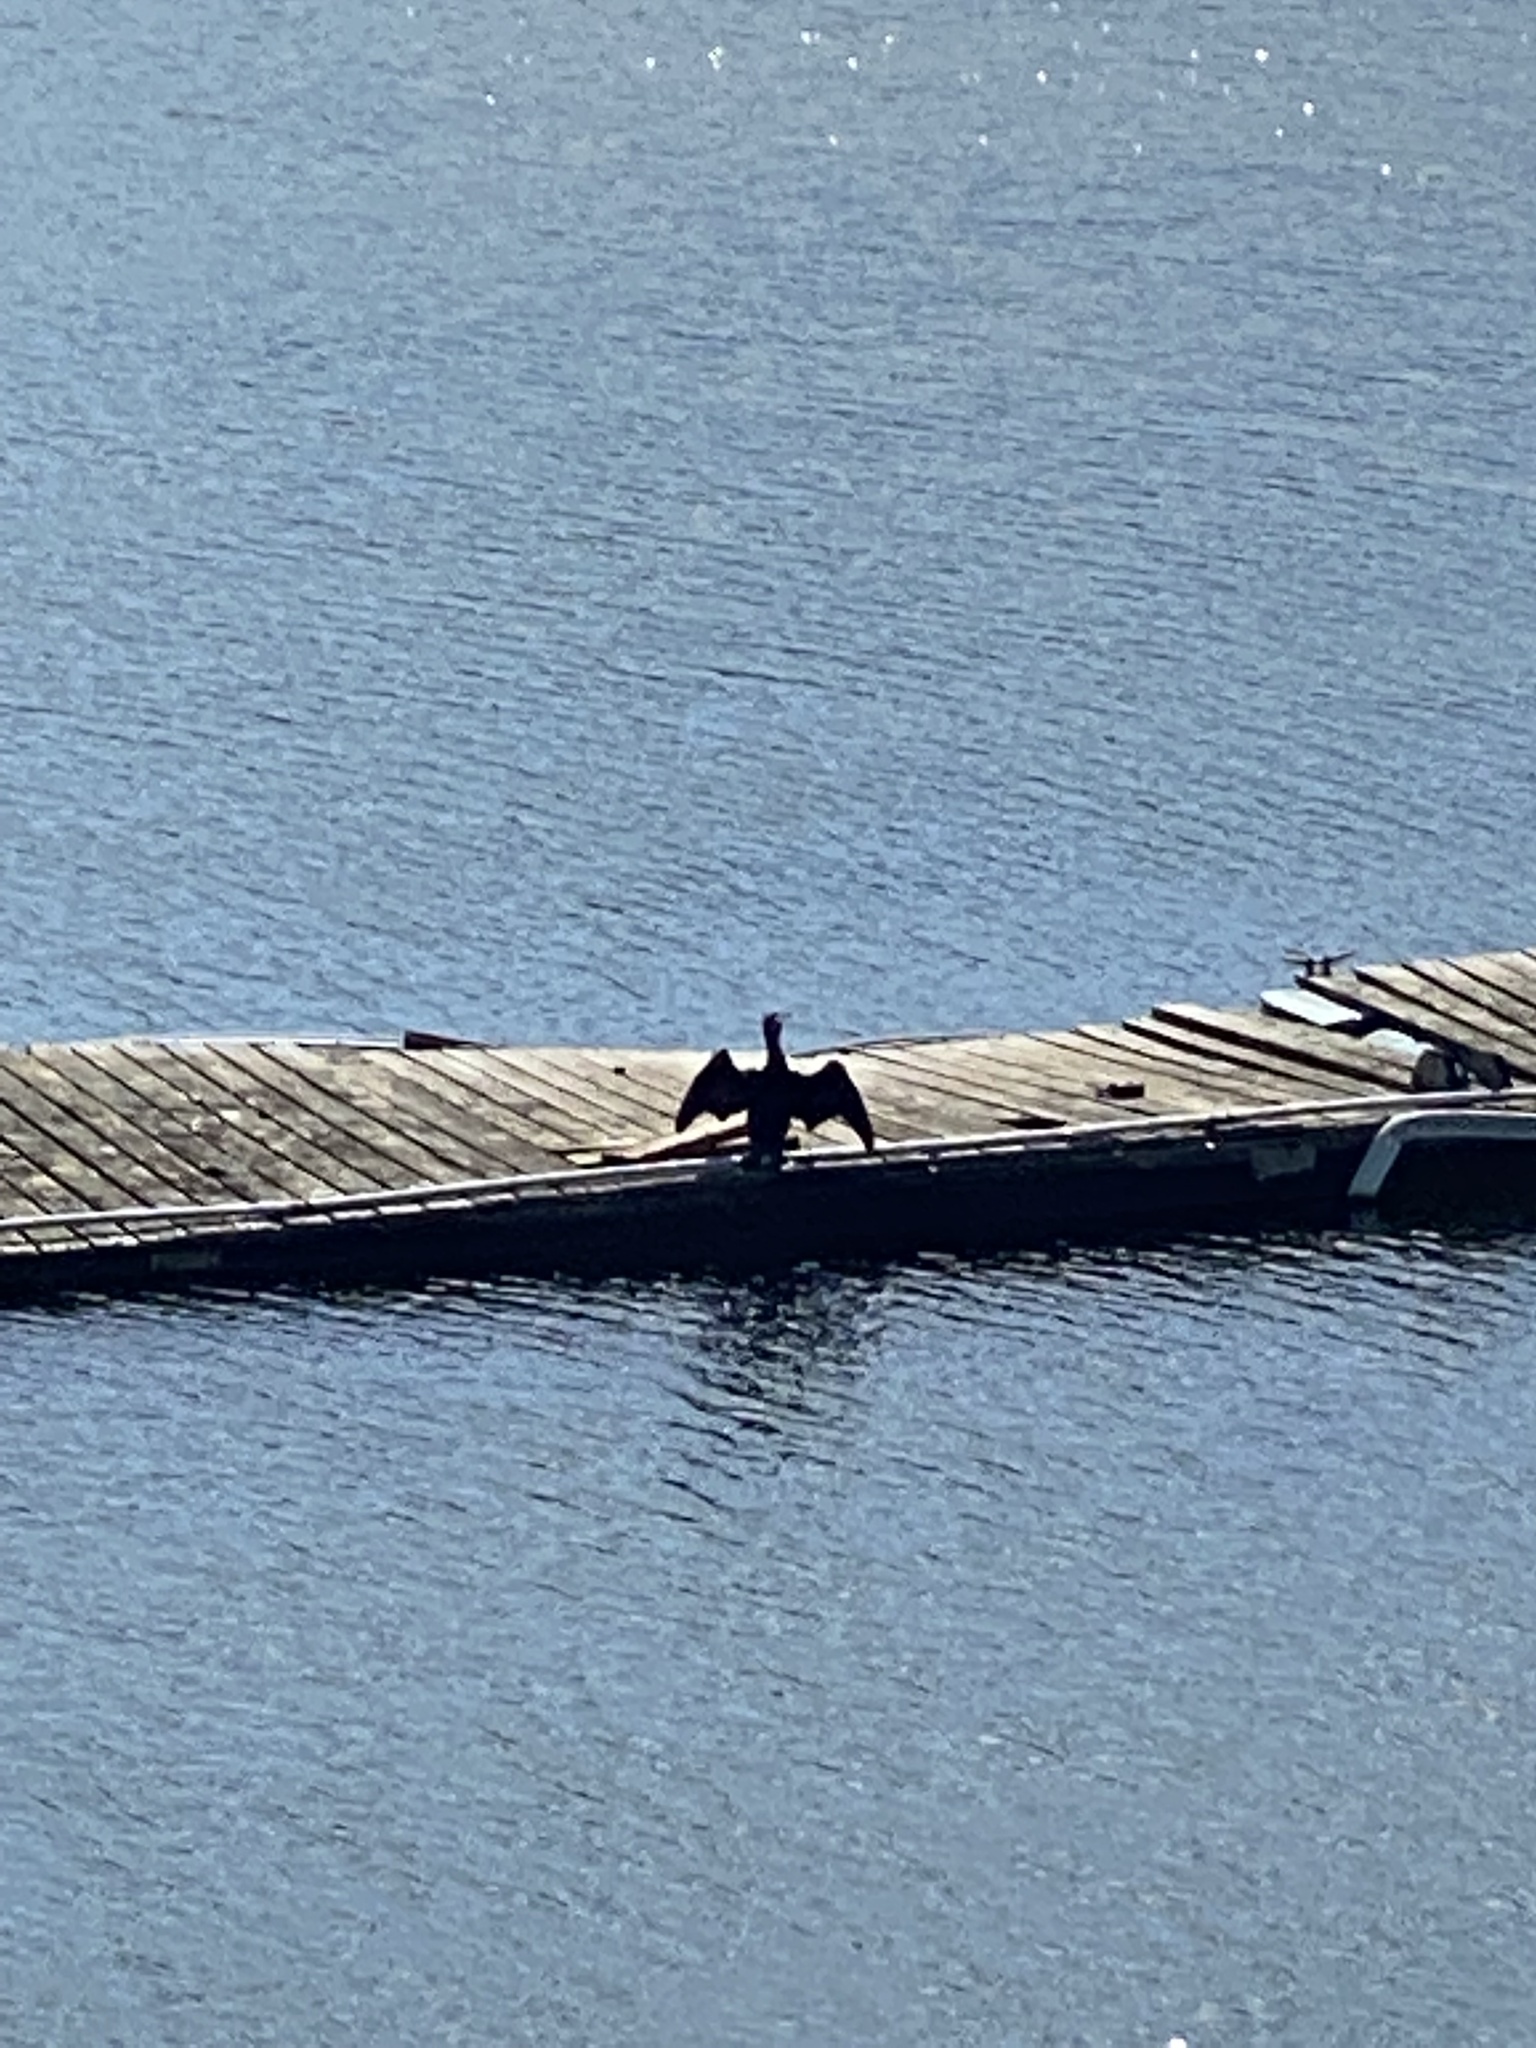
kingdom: Animalia
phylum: Chordata
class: Aves
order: Suliformes
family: Phalacrocoracidae
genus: Phalacrocorax
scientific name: Phalacrocorax auritus
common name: Double-crested cormorant
